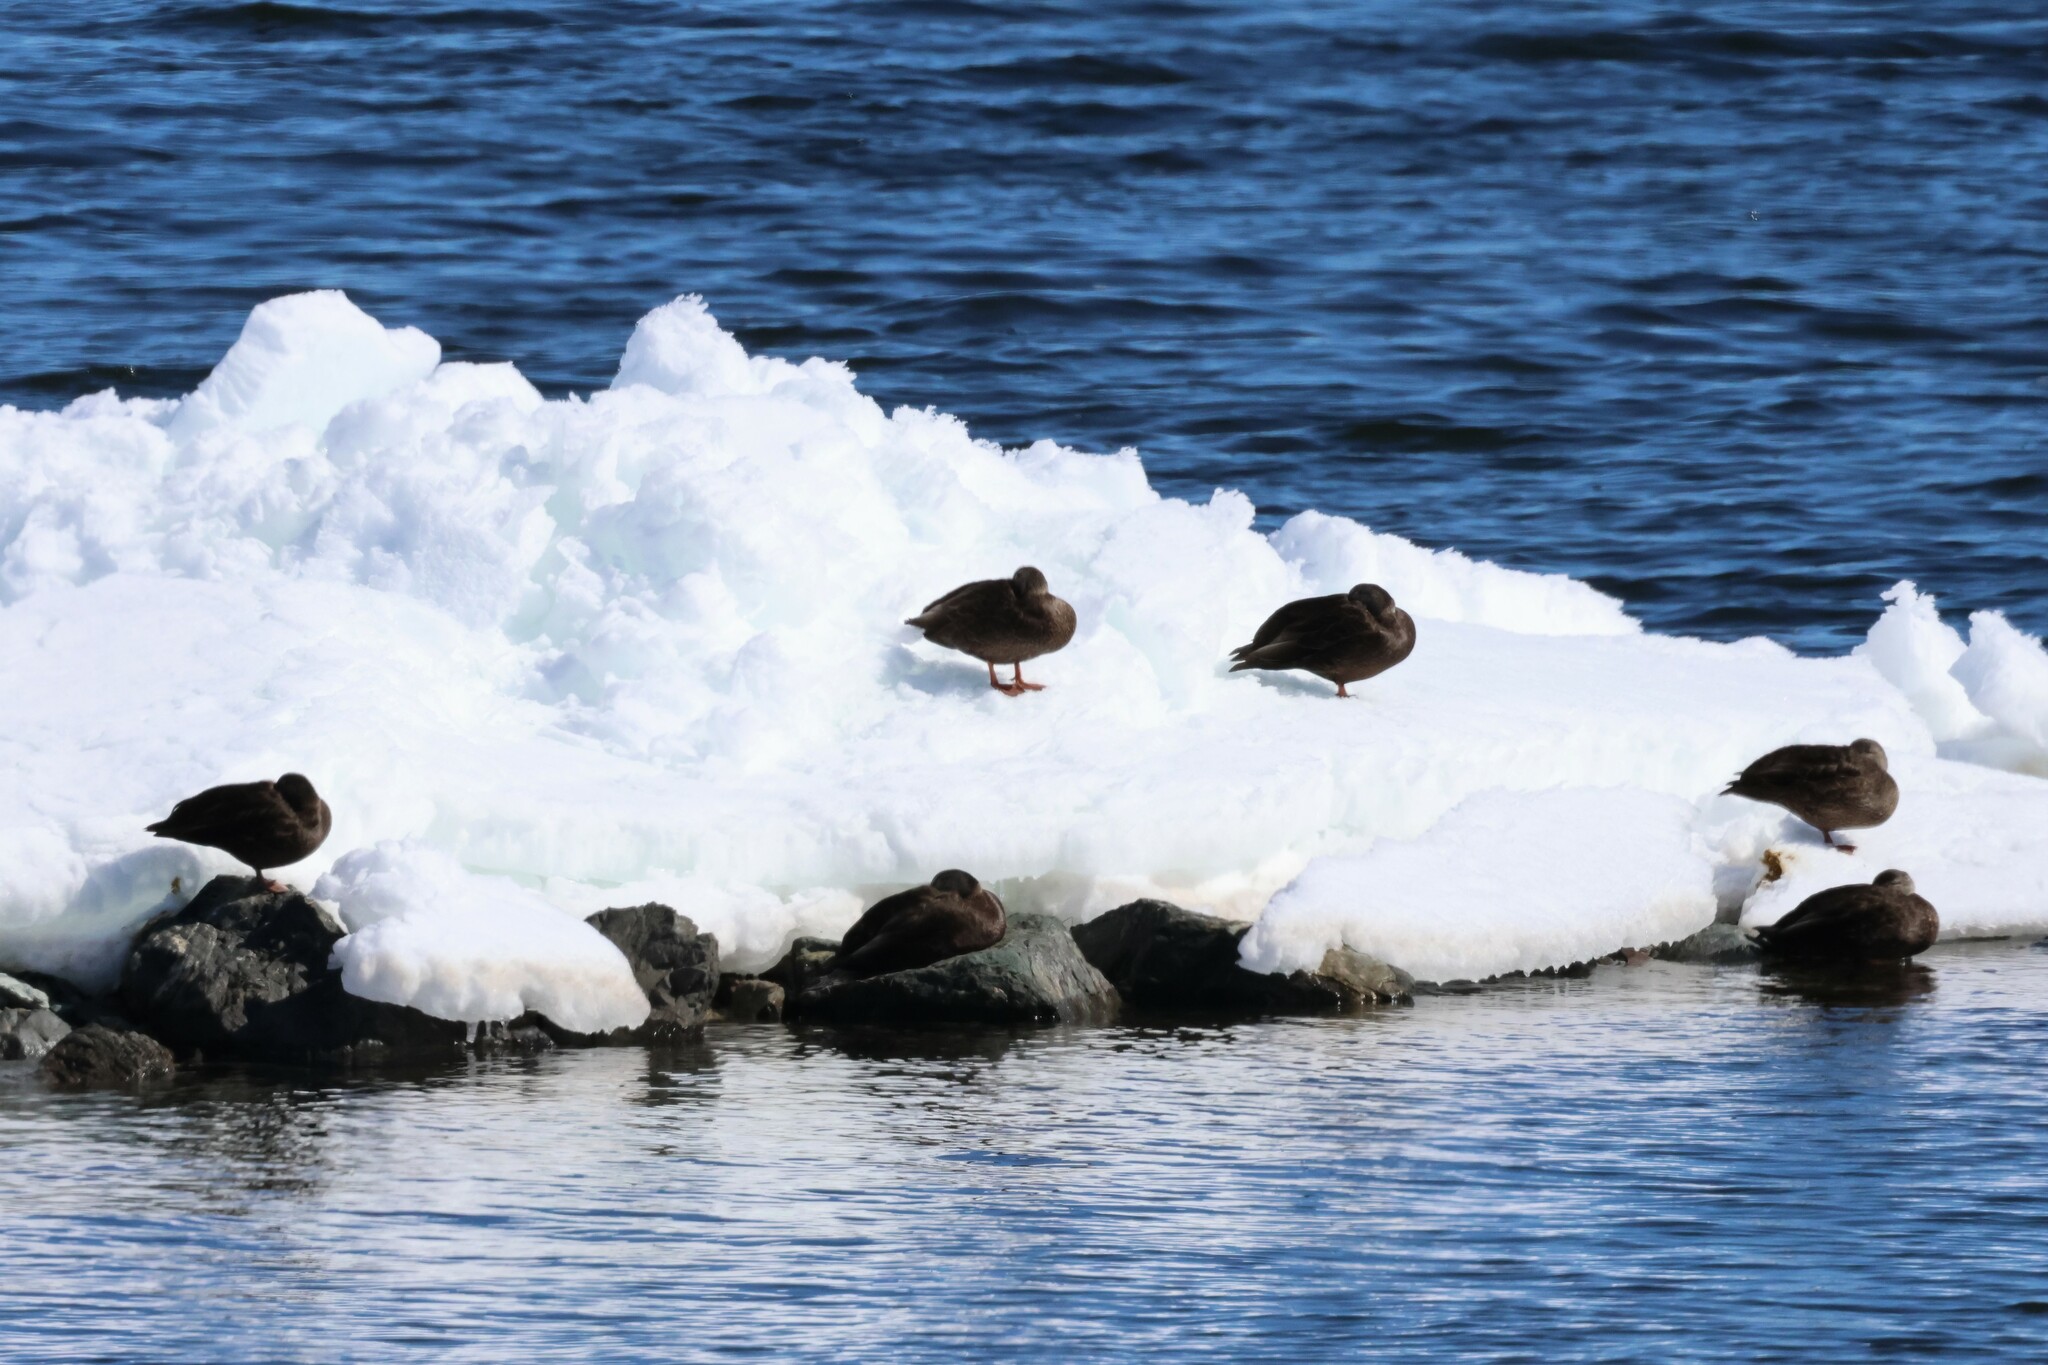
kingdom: Animalia
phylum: Chordata
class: Aves
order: Anseriformes
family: Anatidae
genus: Anas
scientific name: Anas rubripes
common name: American black duck
